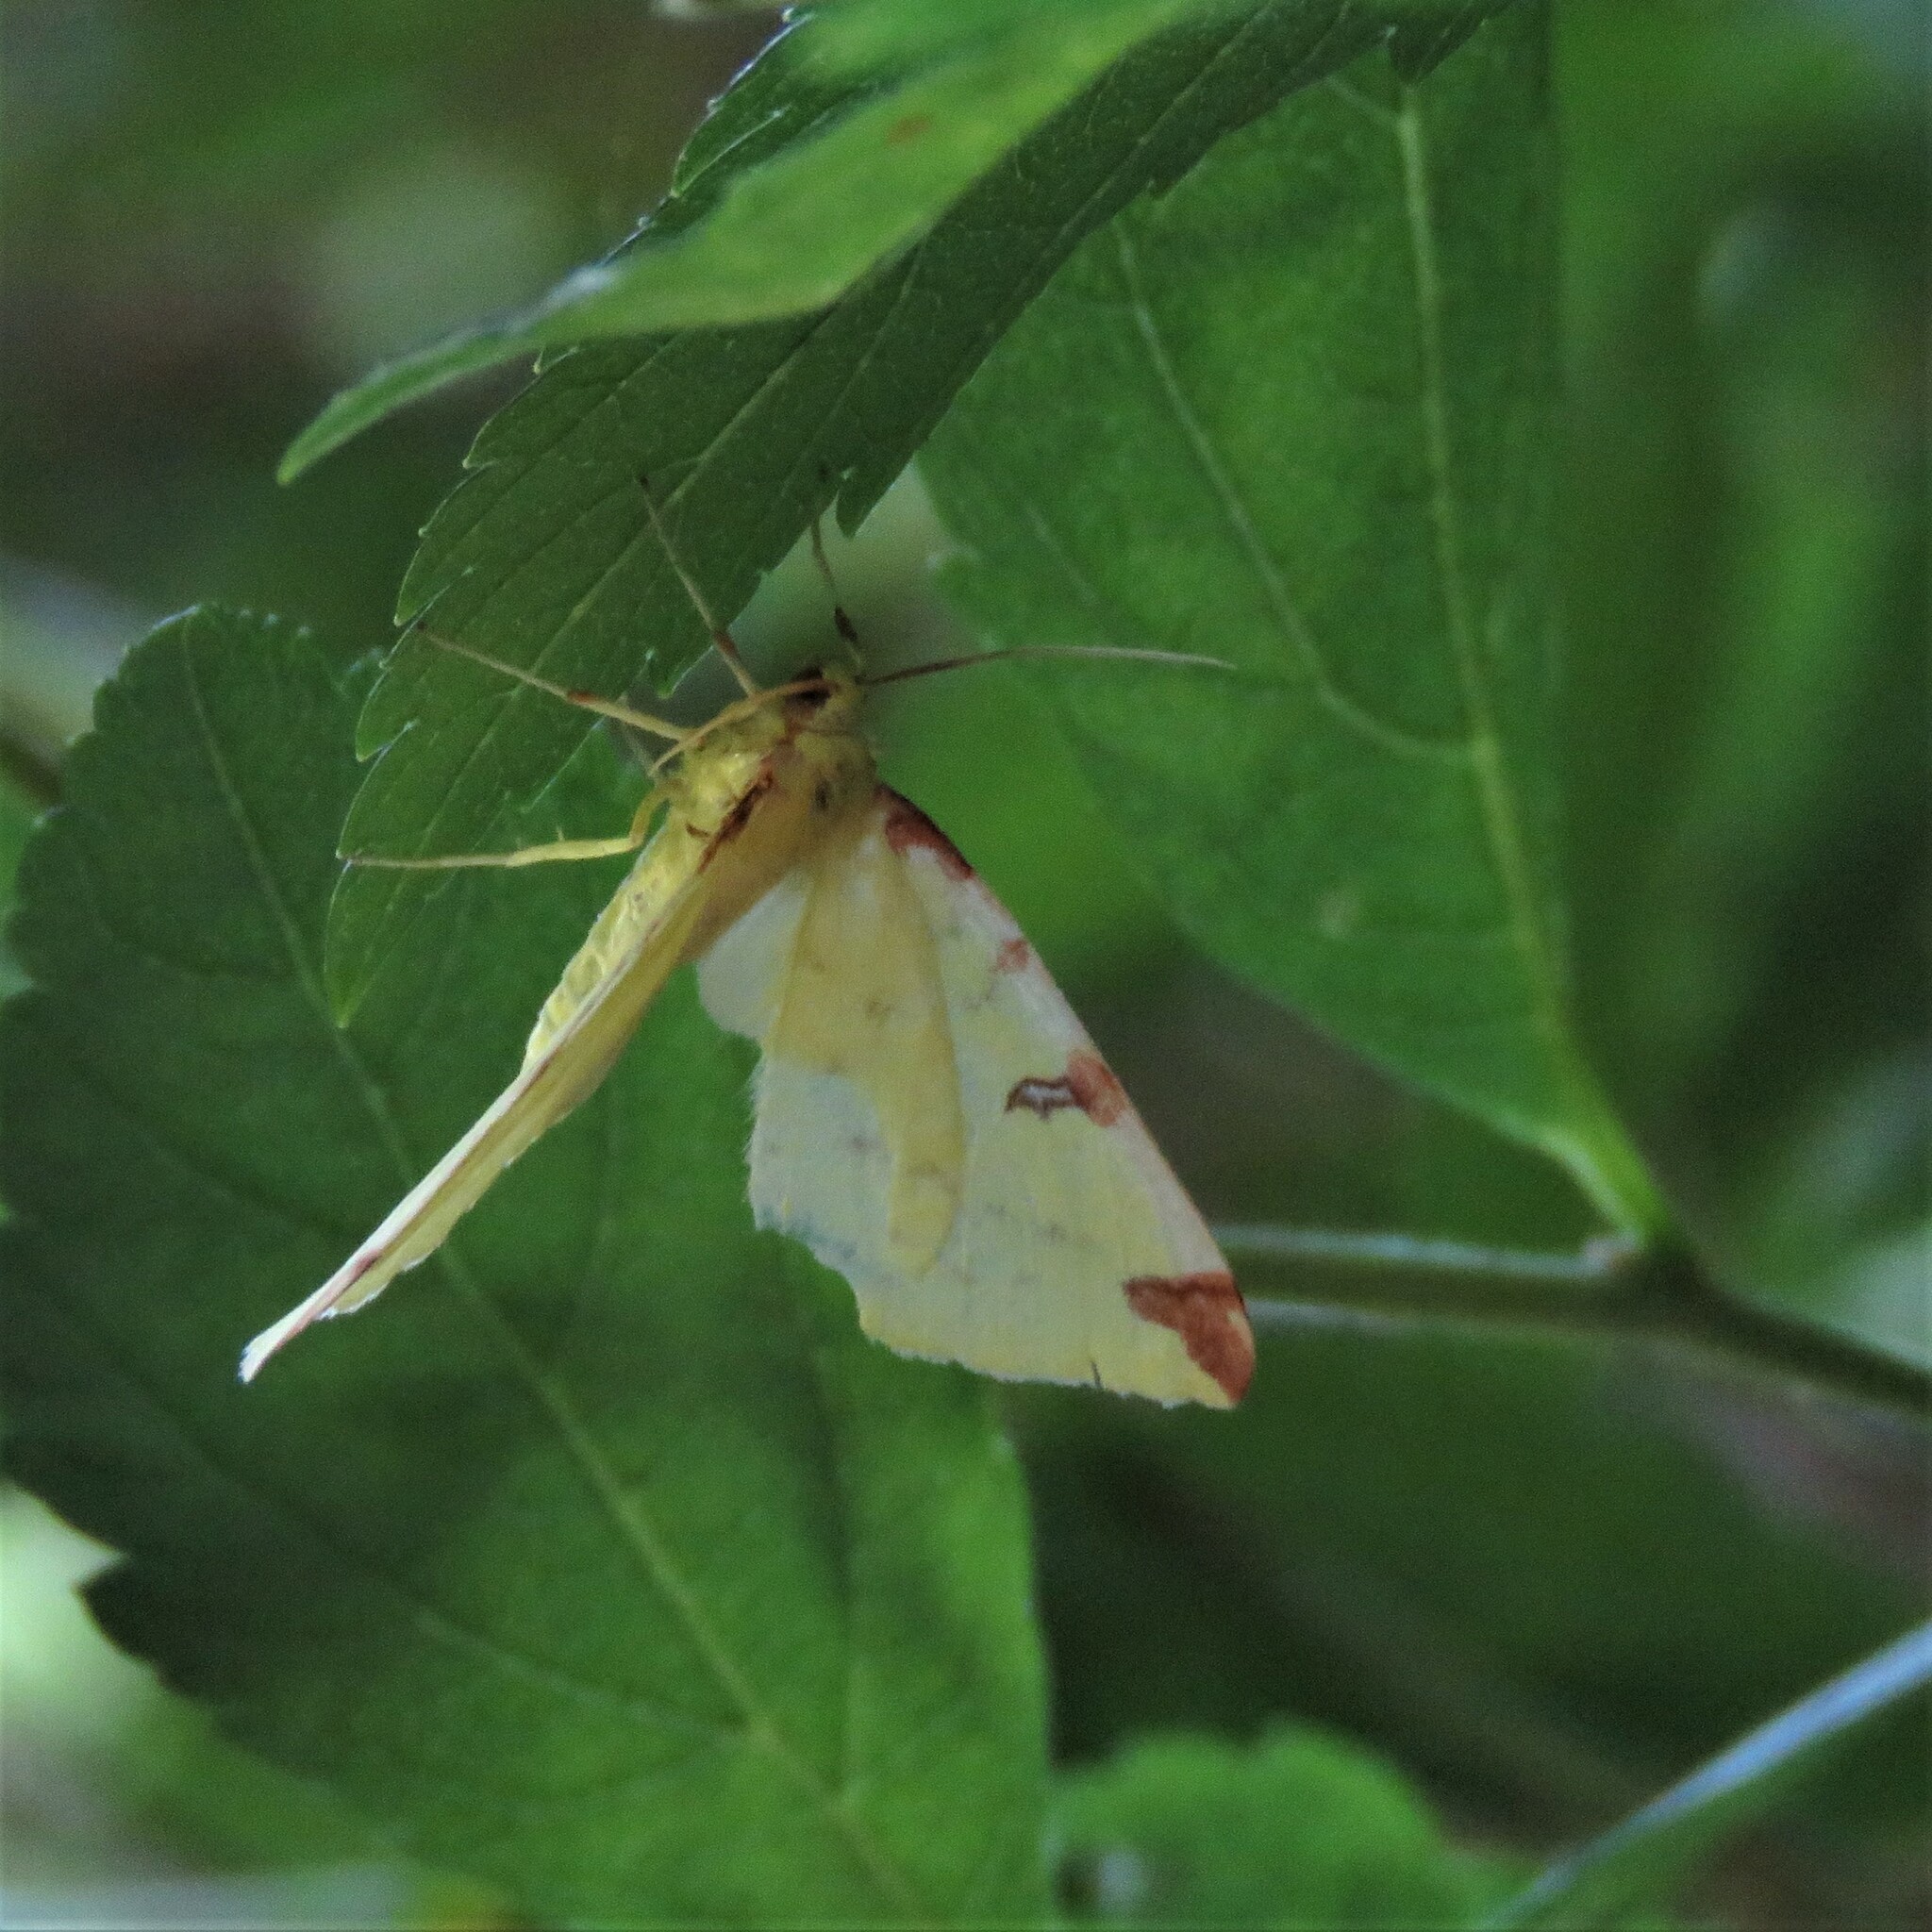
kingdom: Animalia
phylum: Arthropoda
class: Insecta
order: Lepidoptera
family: Geometridae
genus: Opisthograptis
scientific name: Opisthograptis luteolata
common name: Brimstone moth
